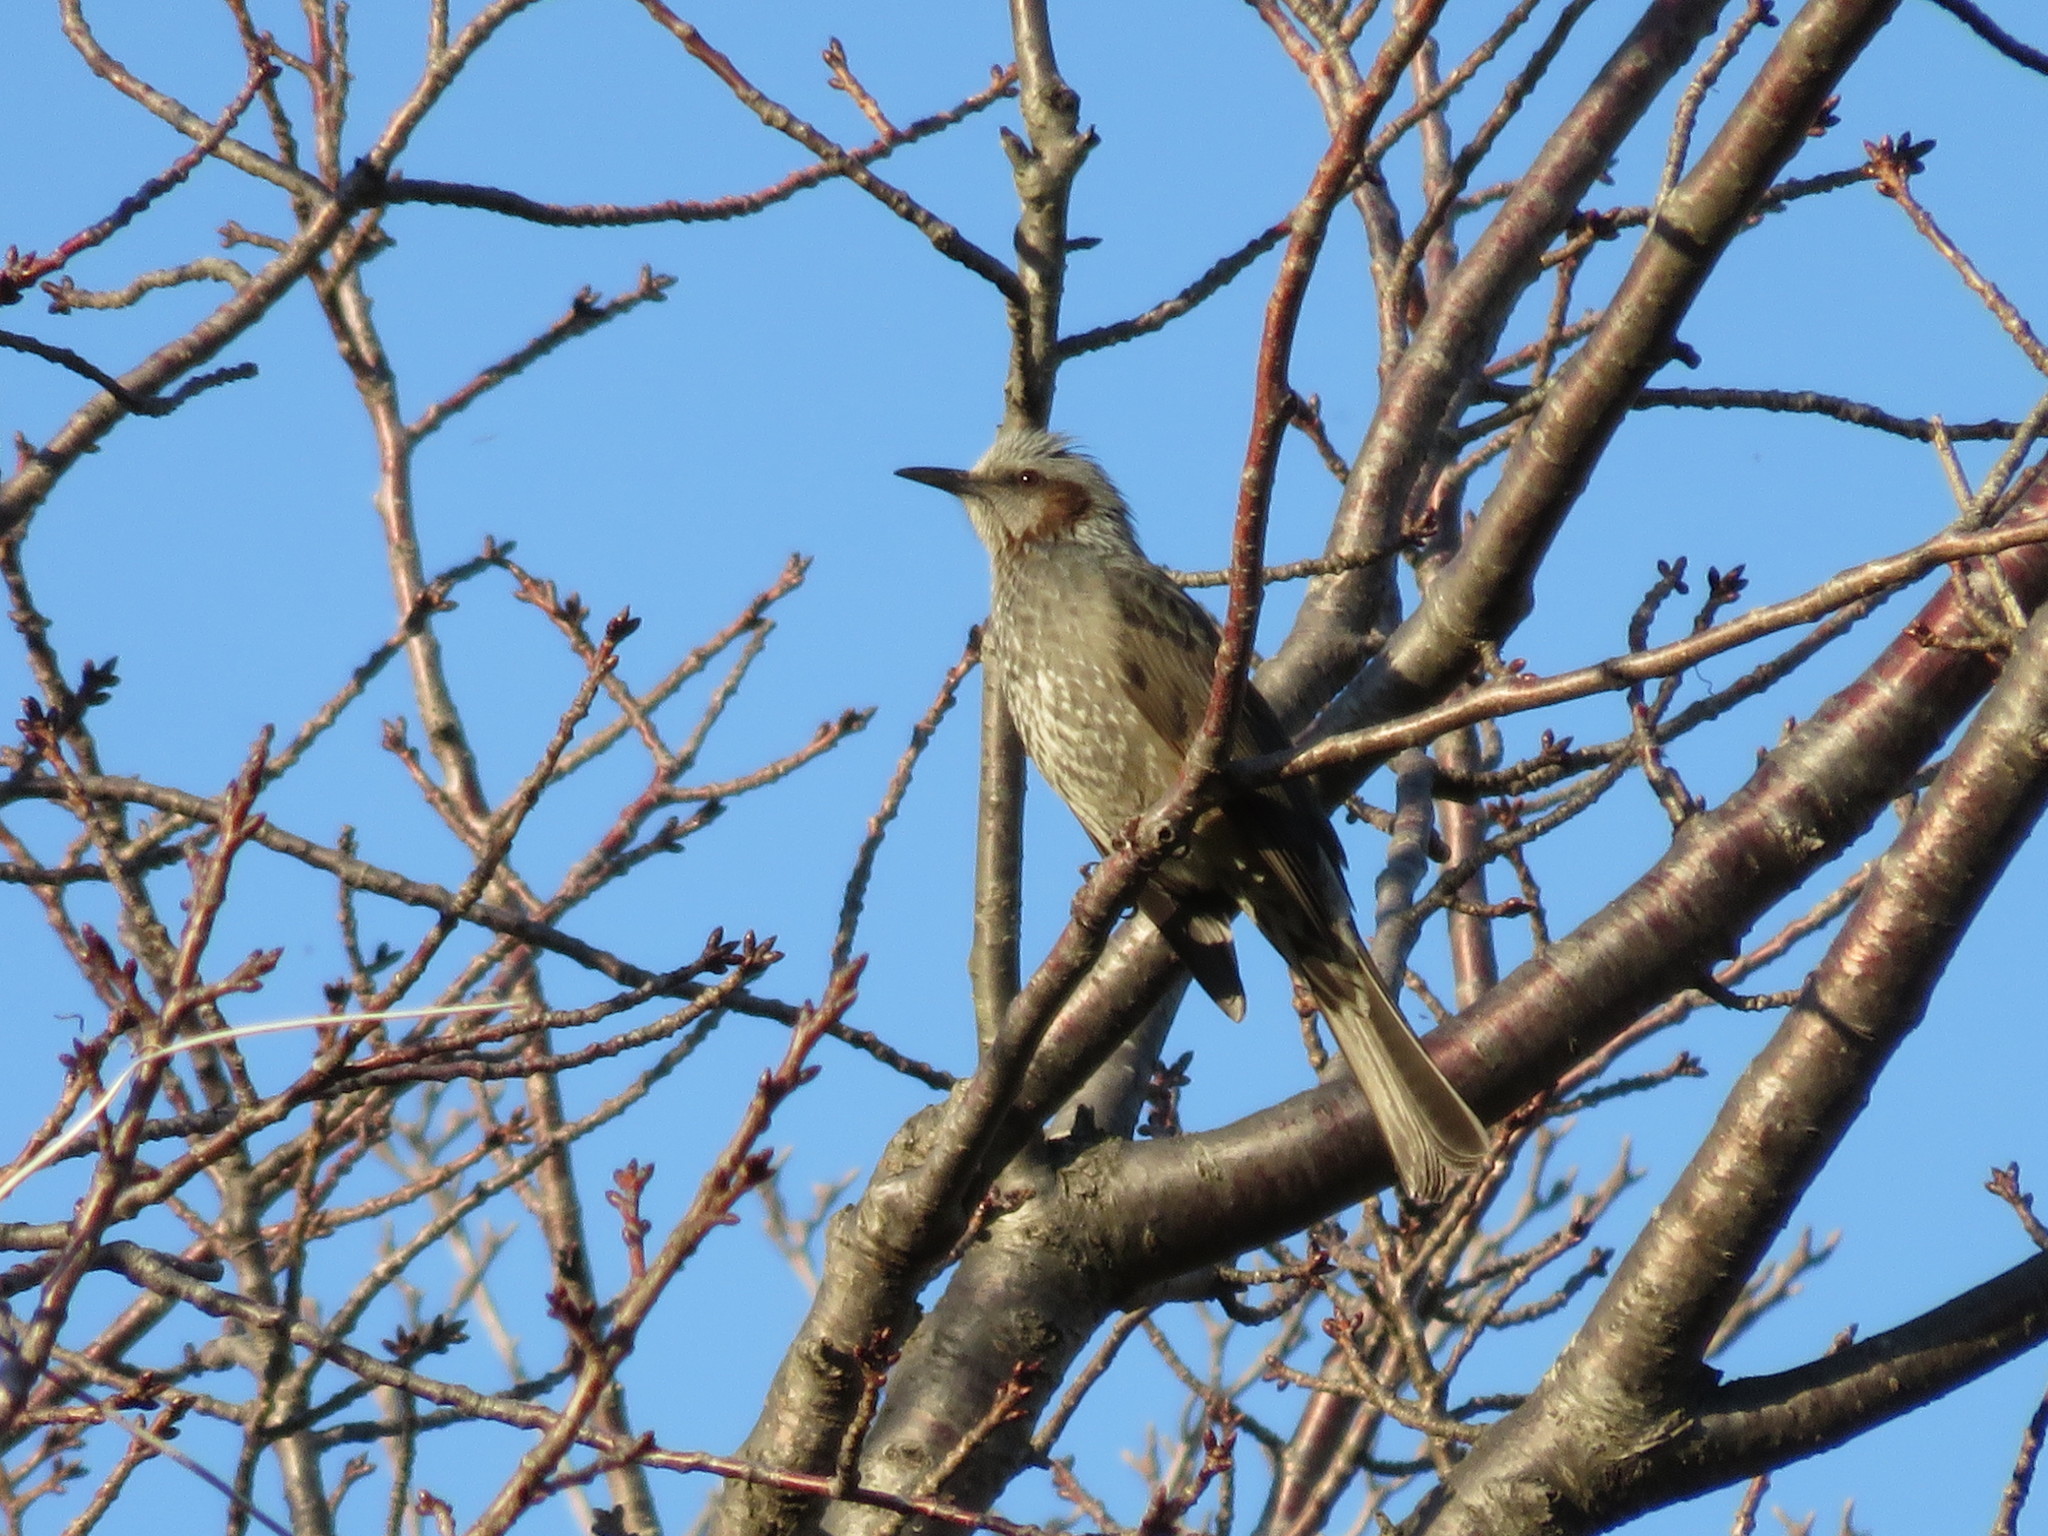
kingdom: Animalia
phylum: Chordata
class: Aves
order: Passeriformes
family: Pycnonotidae
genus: Hypsipetes
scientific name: Hypsipetes amaurotis
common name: Brown-eared bulbul
